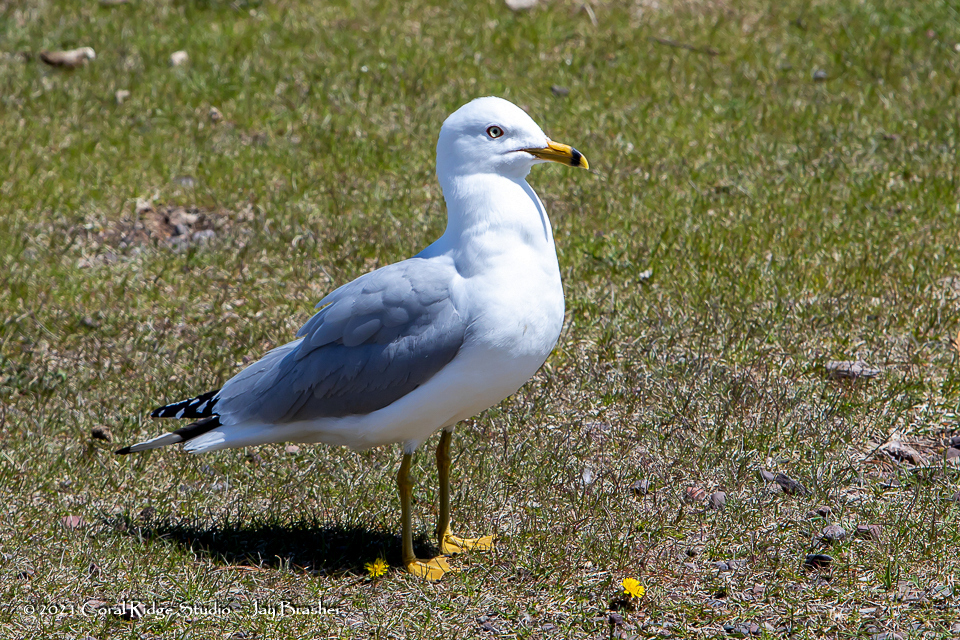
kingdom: Animalia
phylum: Chordata
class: Aves
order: Charadriiformes
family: Laridae
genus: Larus
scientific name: Larus delawarensis
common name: Ring-billed gull
